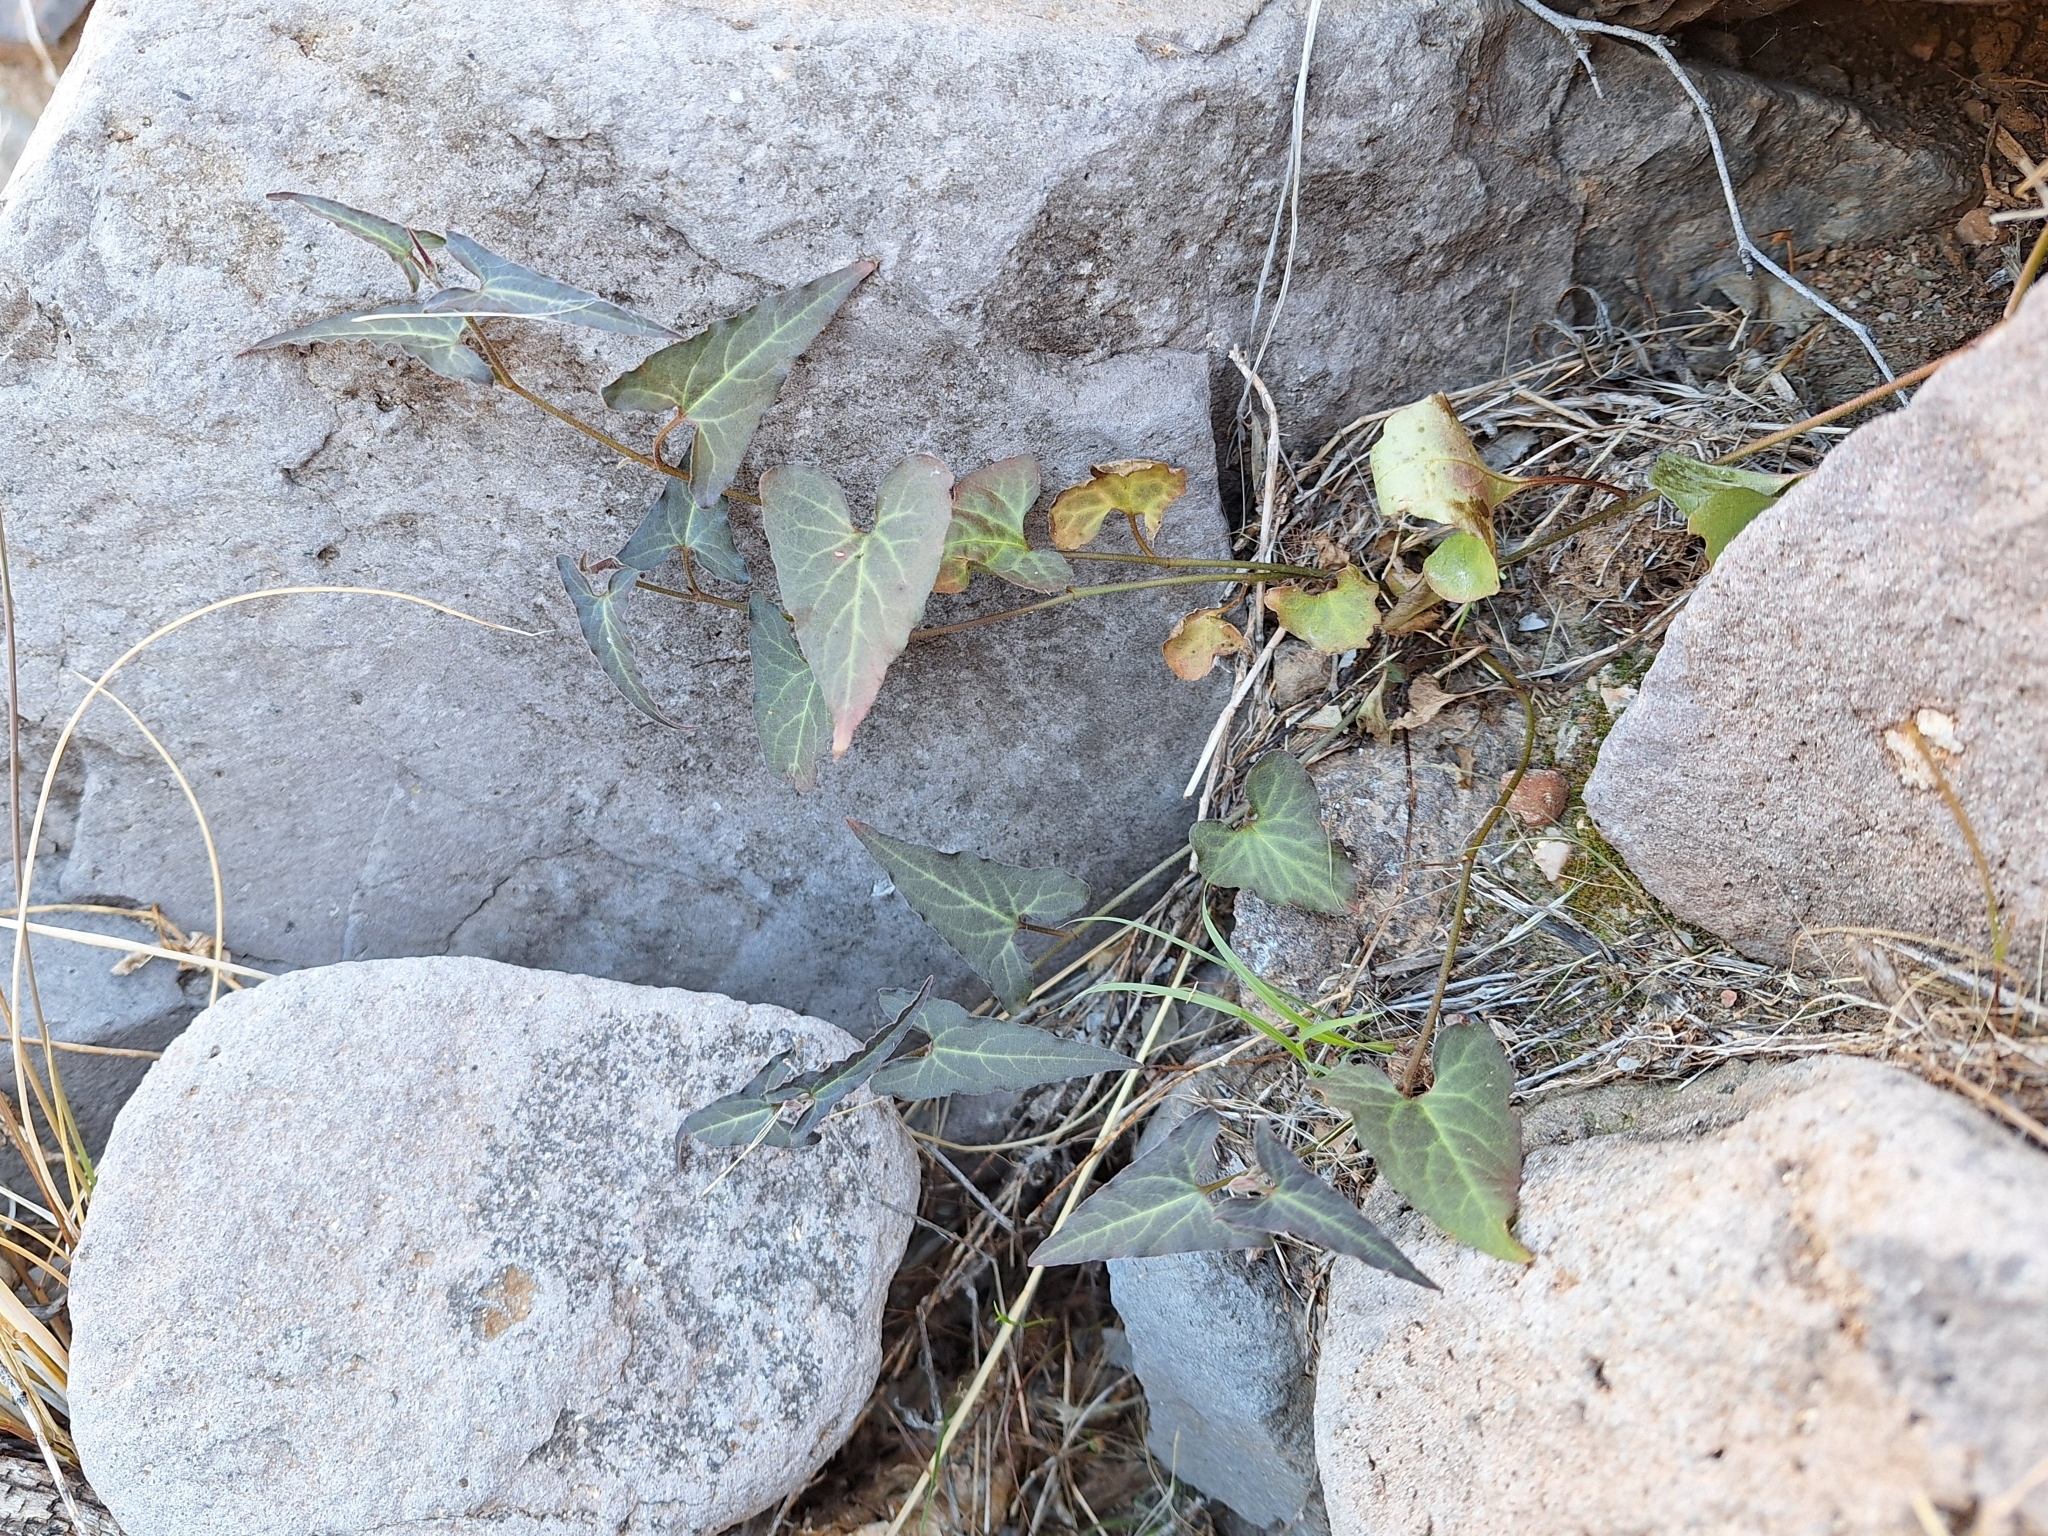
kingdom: Plantae
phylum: Tracheophyta
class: Magnoliopsida
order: Piperales
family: Aristolochiaceae
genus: Aristolochia
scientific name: Aristolochia watsonii
